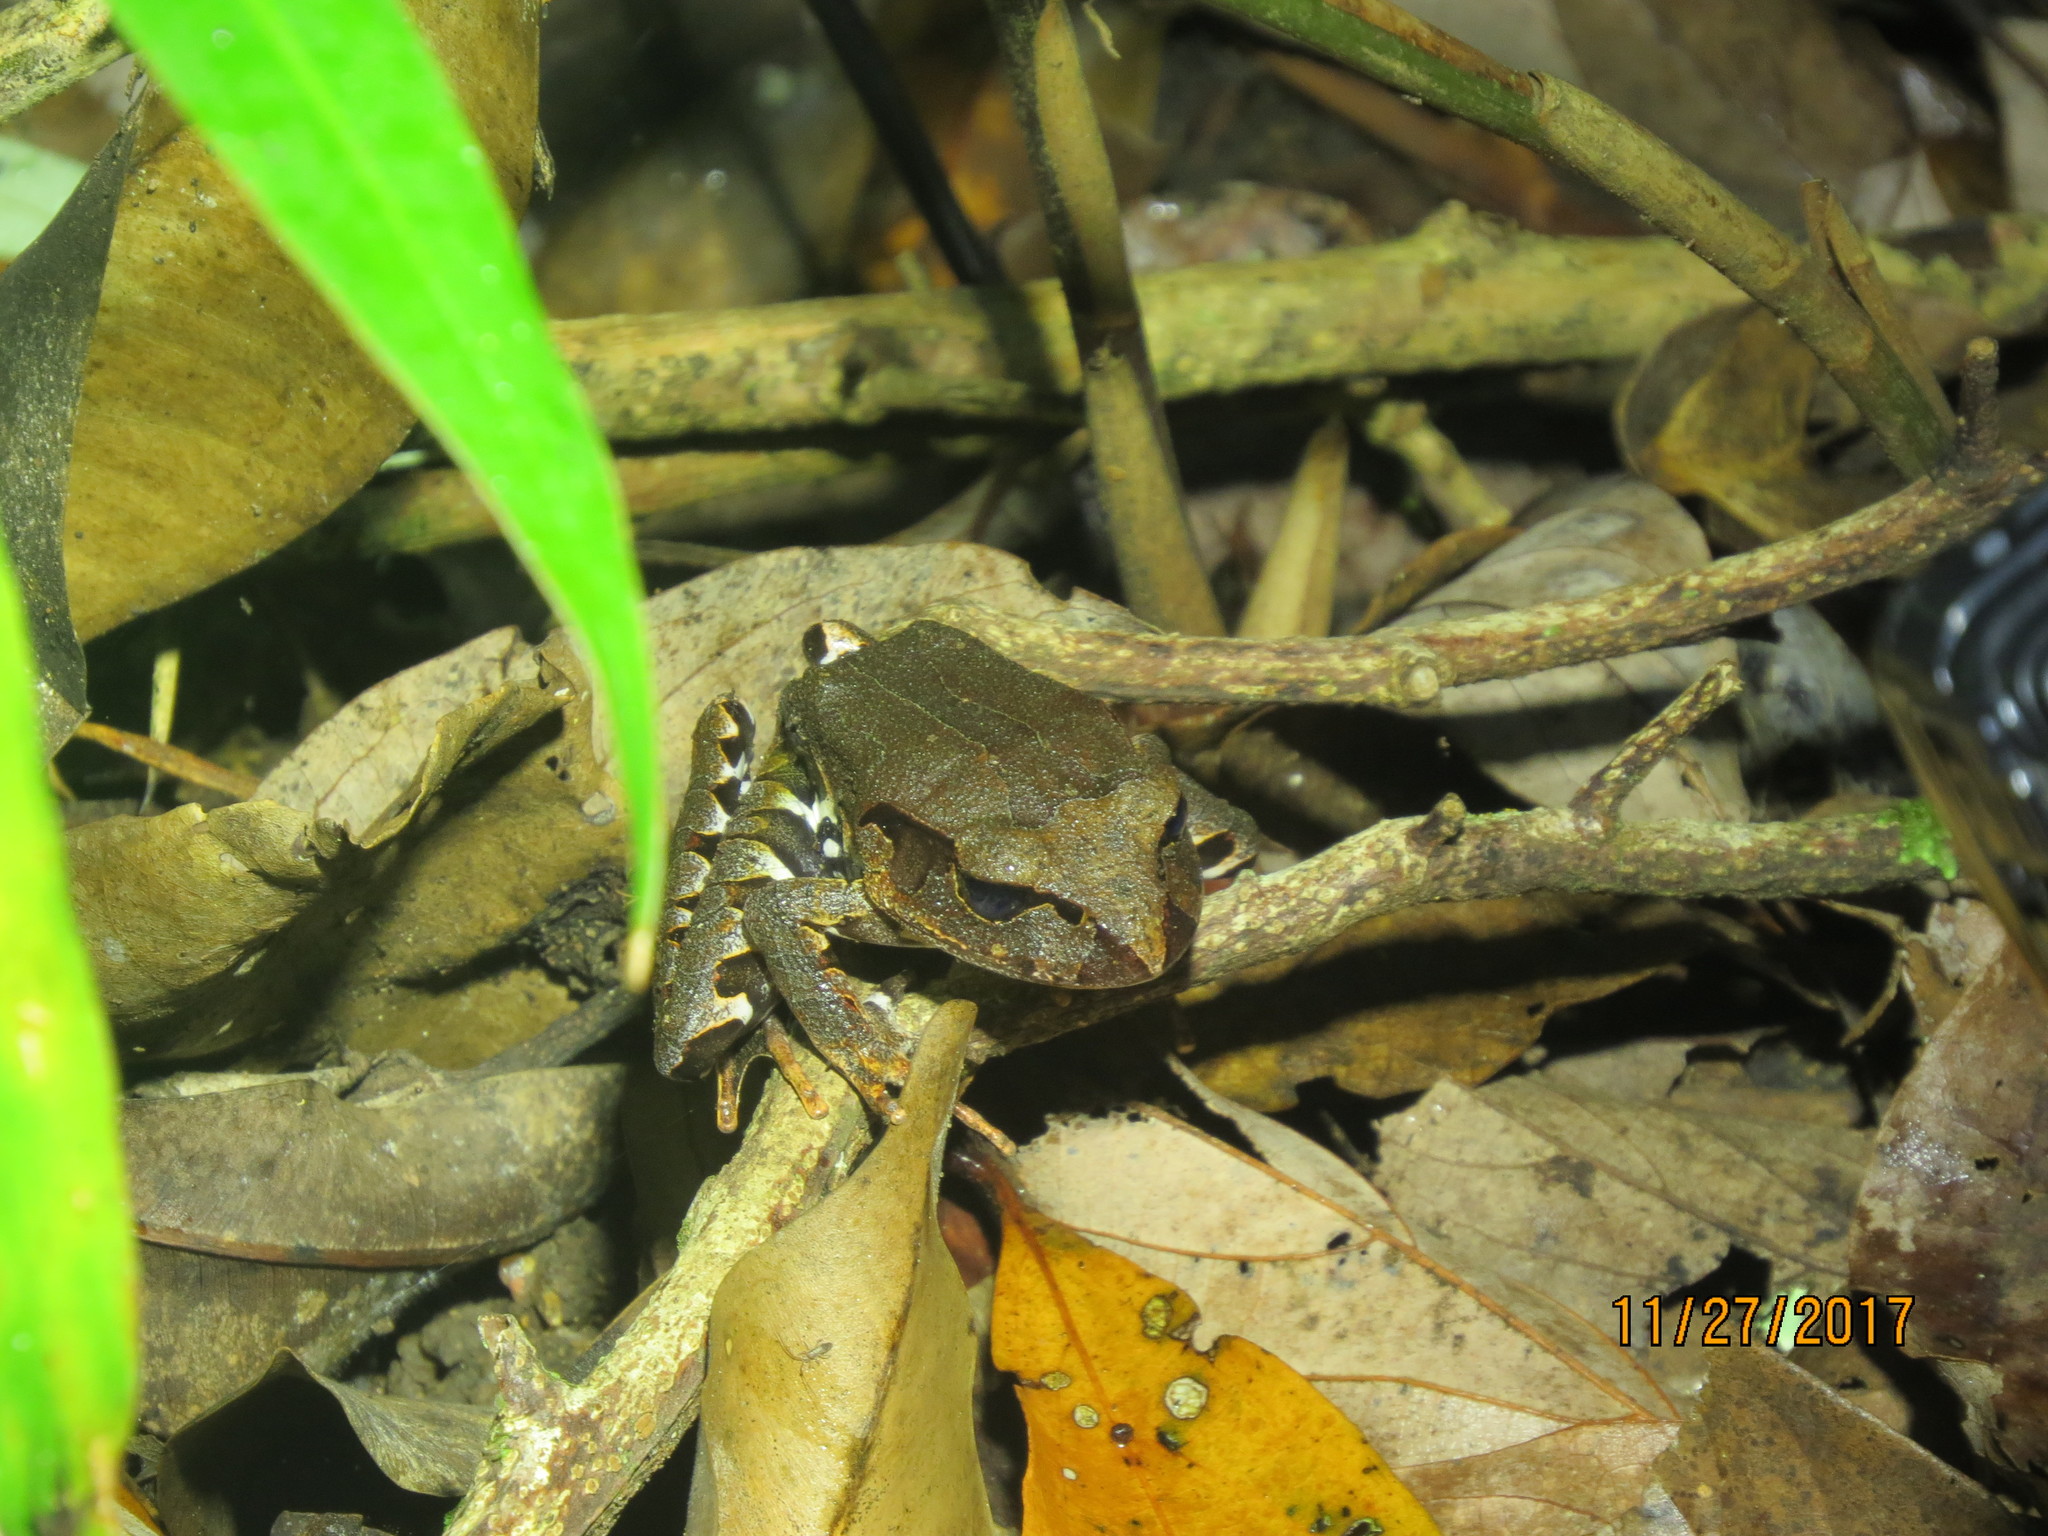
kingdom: Animalia
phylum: Chordata
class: Amphibia
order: Anura
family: Myobatrachidae
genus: Mixophyes
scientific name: Mixophyes schevilli
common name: Northern barred frog
